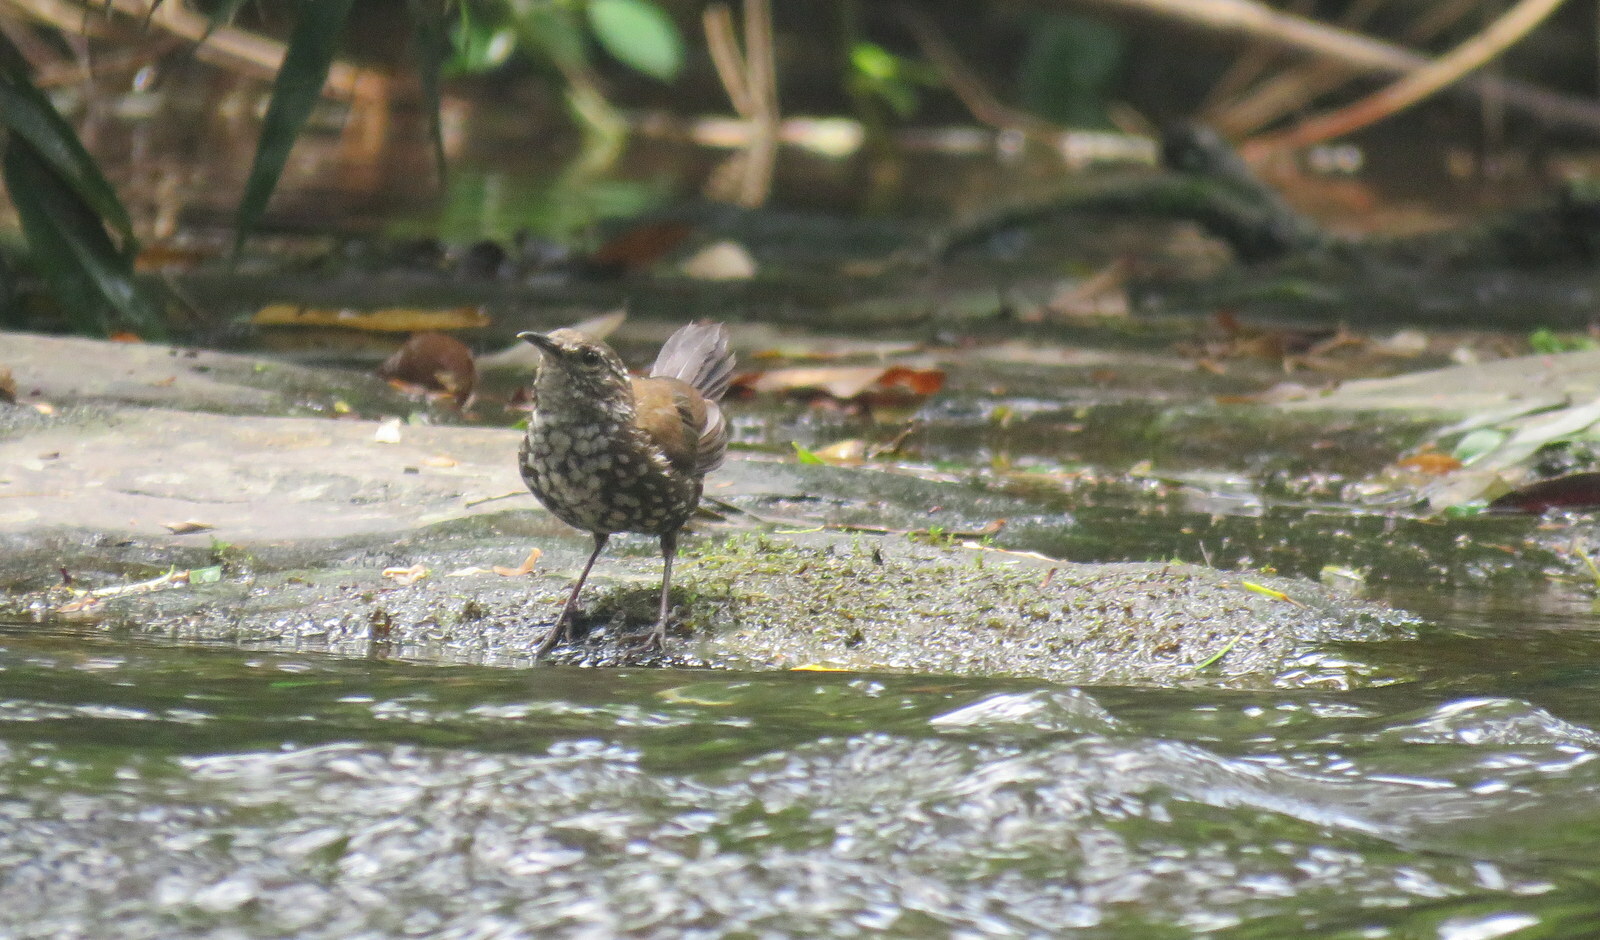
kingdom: Animalia
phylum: Chordata
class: Aves
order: Passeriformes
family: Furnariidae
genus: Lochmias
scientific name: Lochmias nematura
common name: Sharp-tailed streamcreeper
